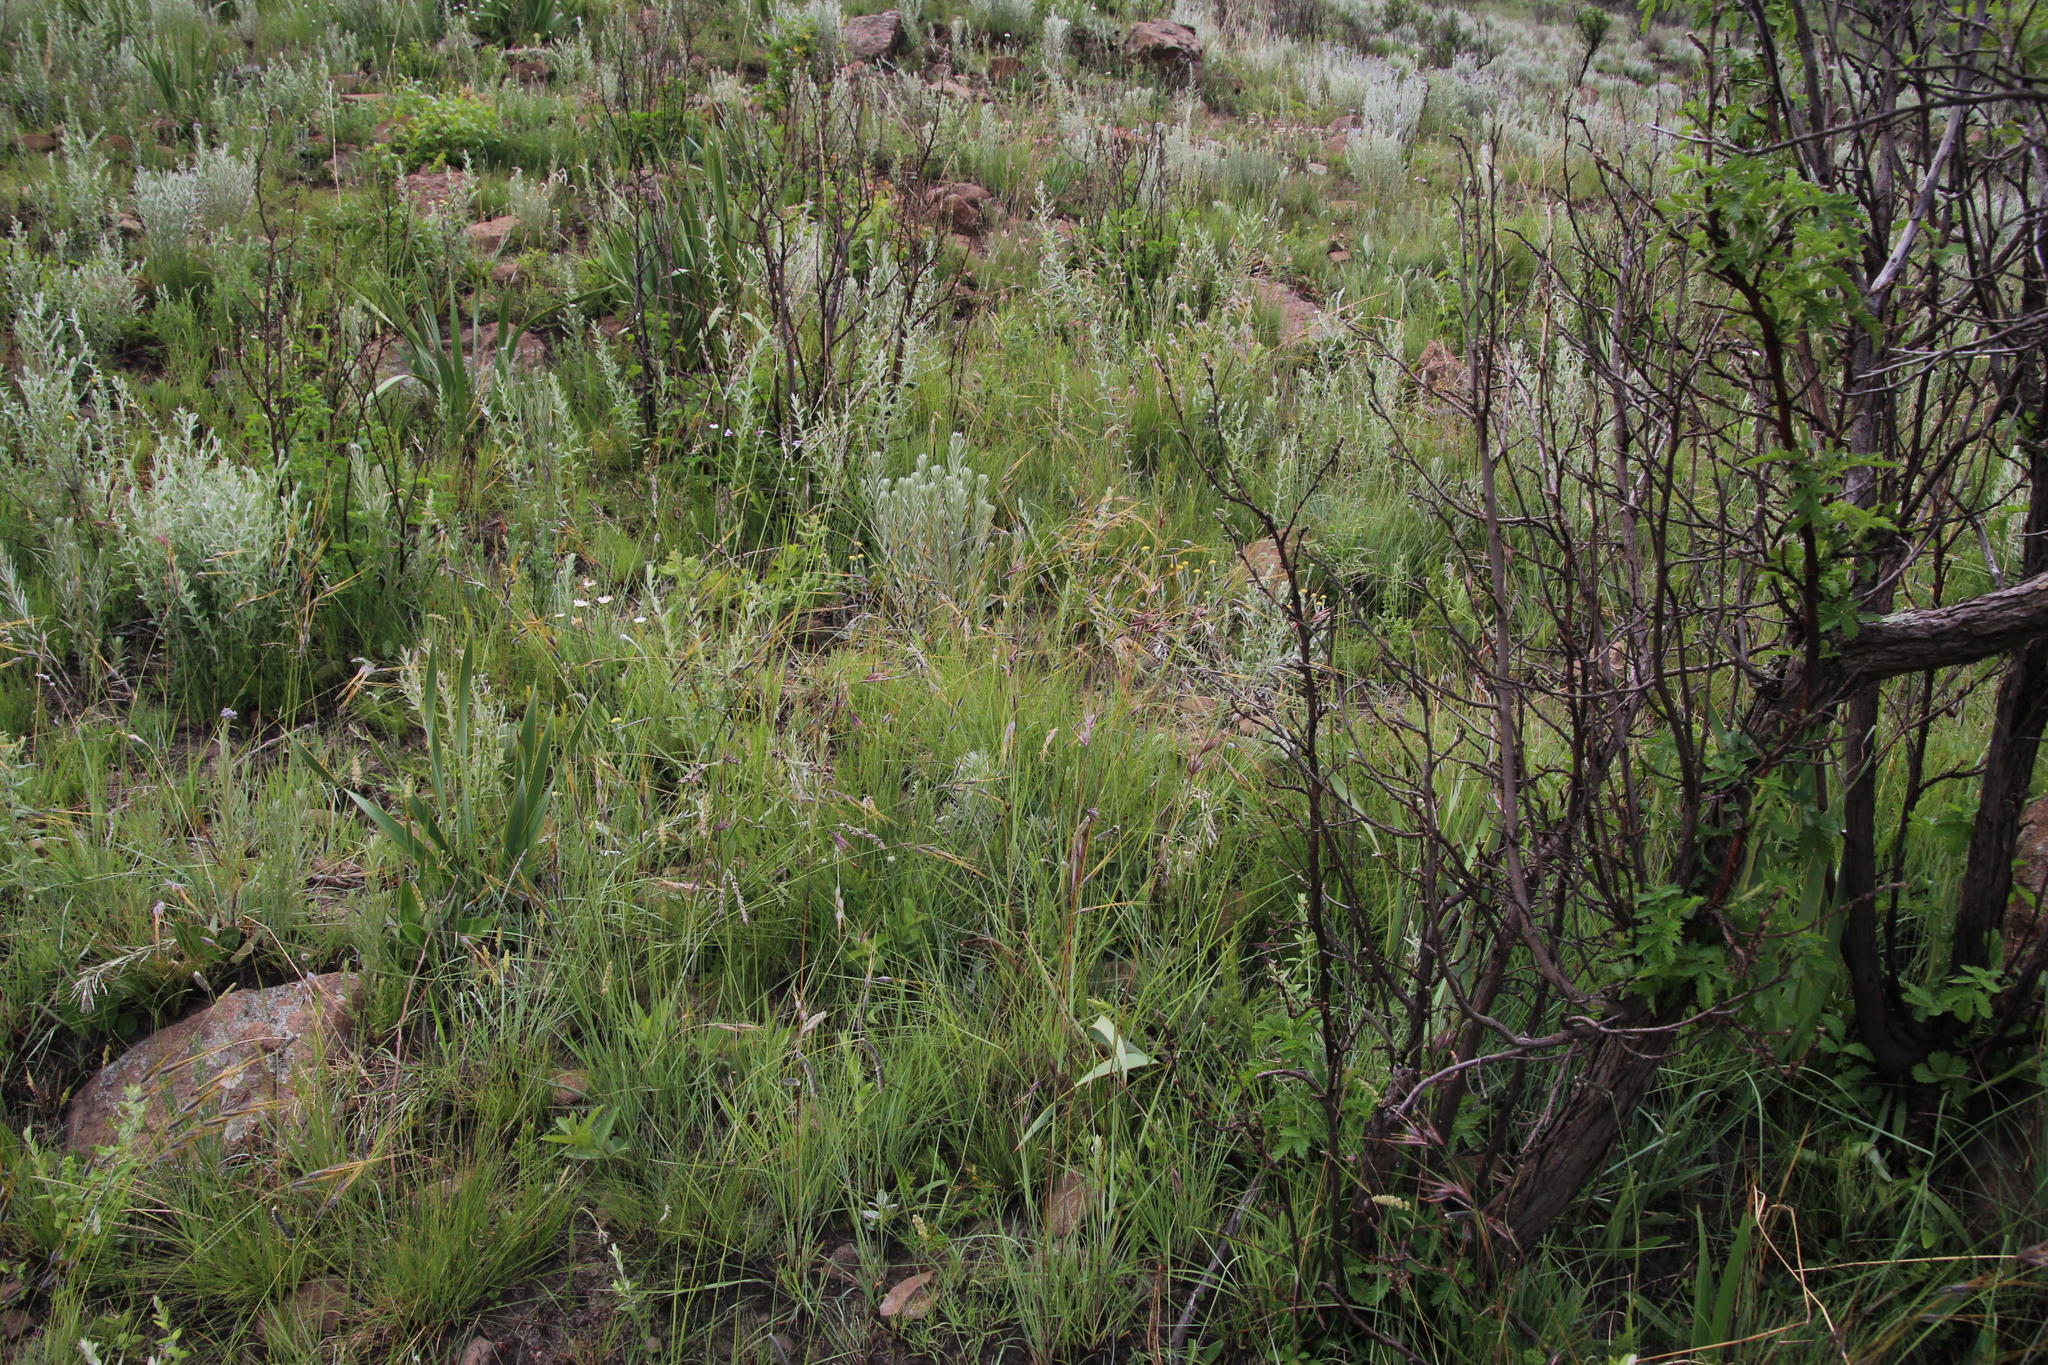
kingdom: Plantae
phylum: Tracheophyta
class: Liliopsida
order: Poales
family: Poaceae
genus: Harpochloa
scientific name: Harpochloa falx
